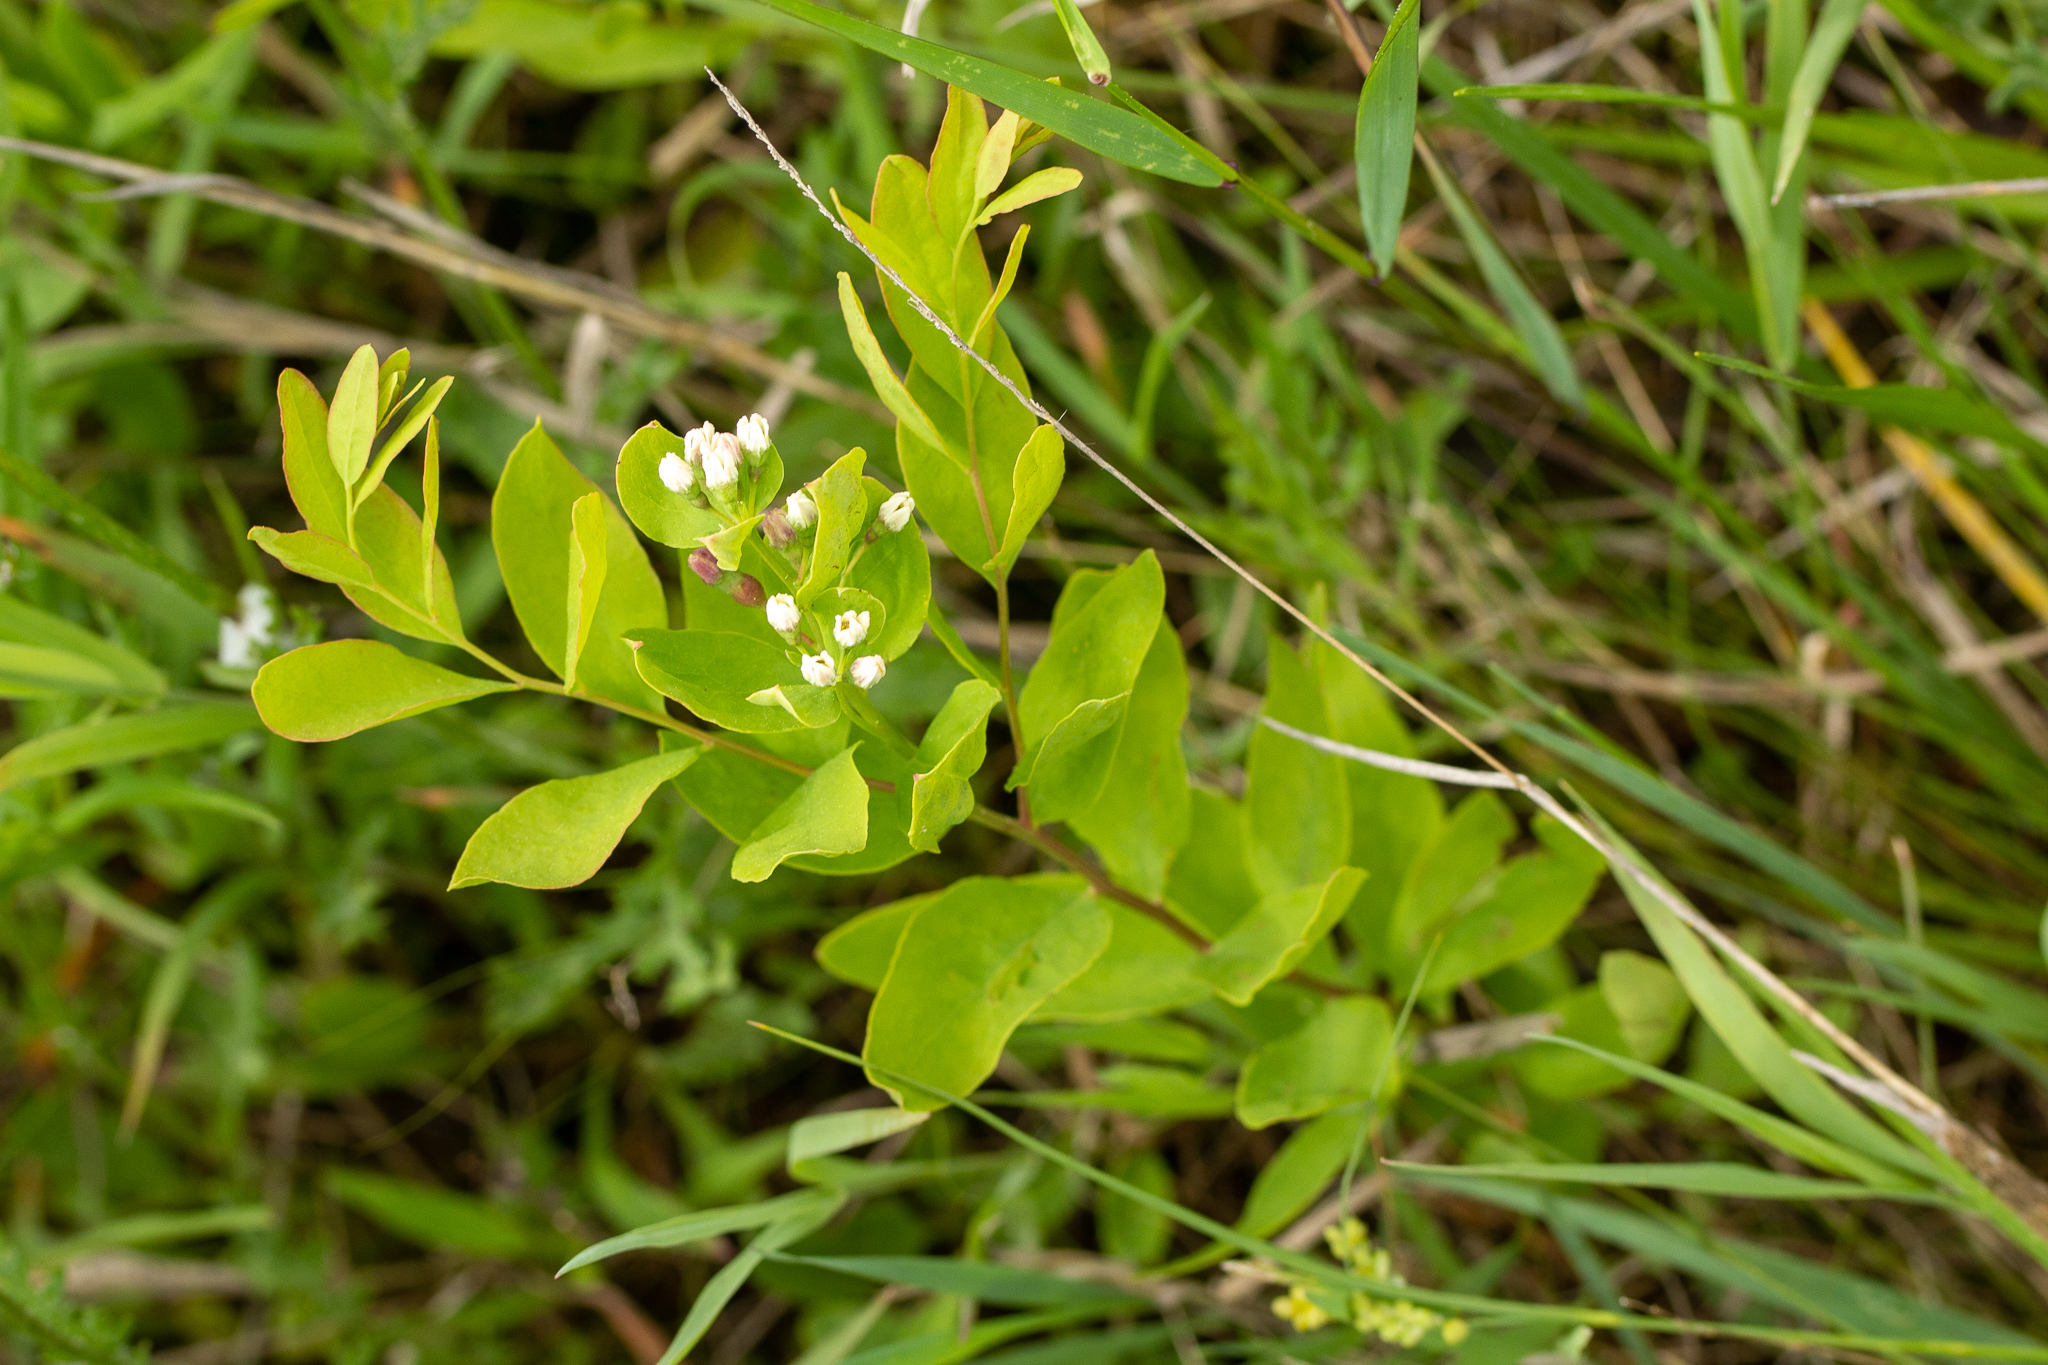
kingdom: Plantae
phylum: Tracheophyta
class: Magnoliopsida
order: Santalales
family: Comandraceae
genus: Comandra
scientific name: Comandra umbellata
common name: Bastard toadflax
